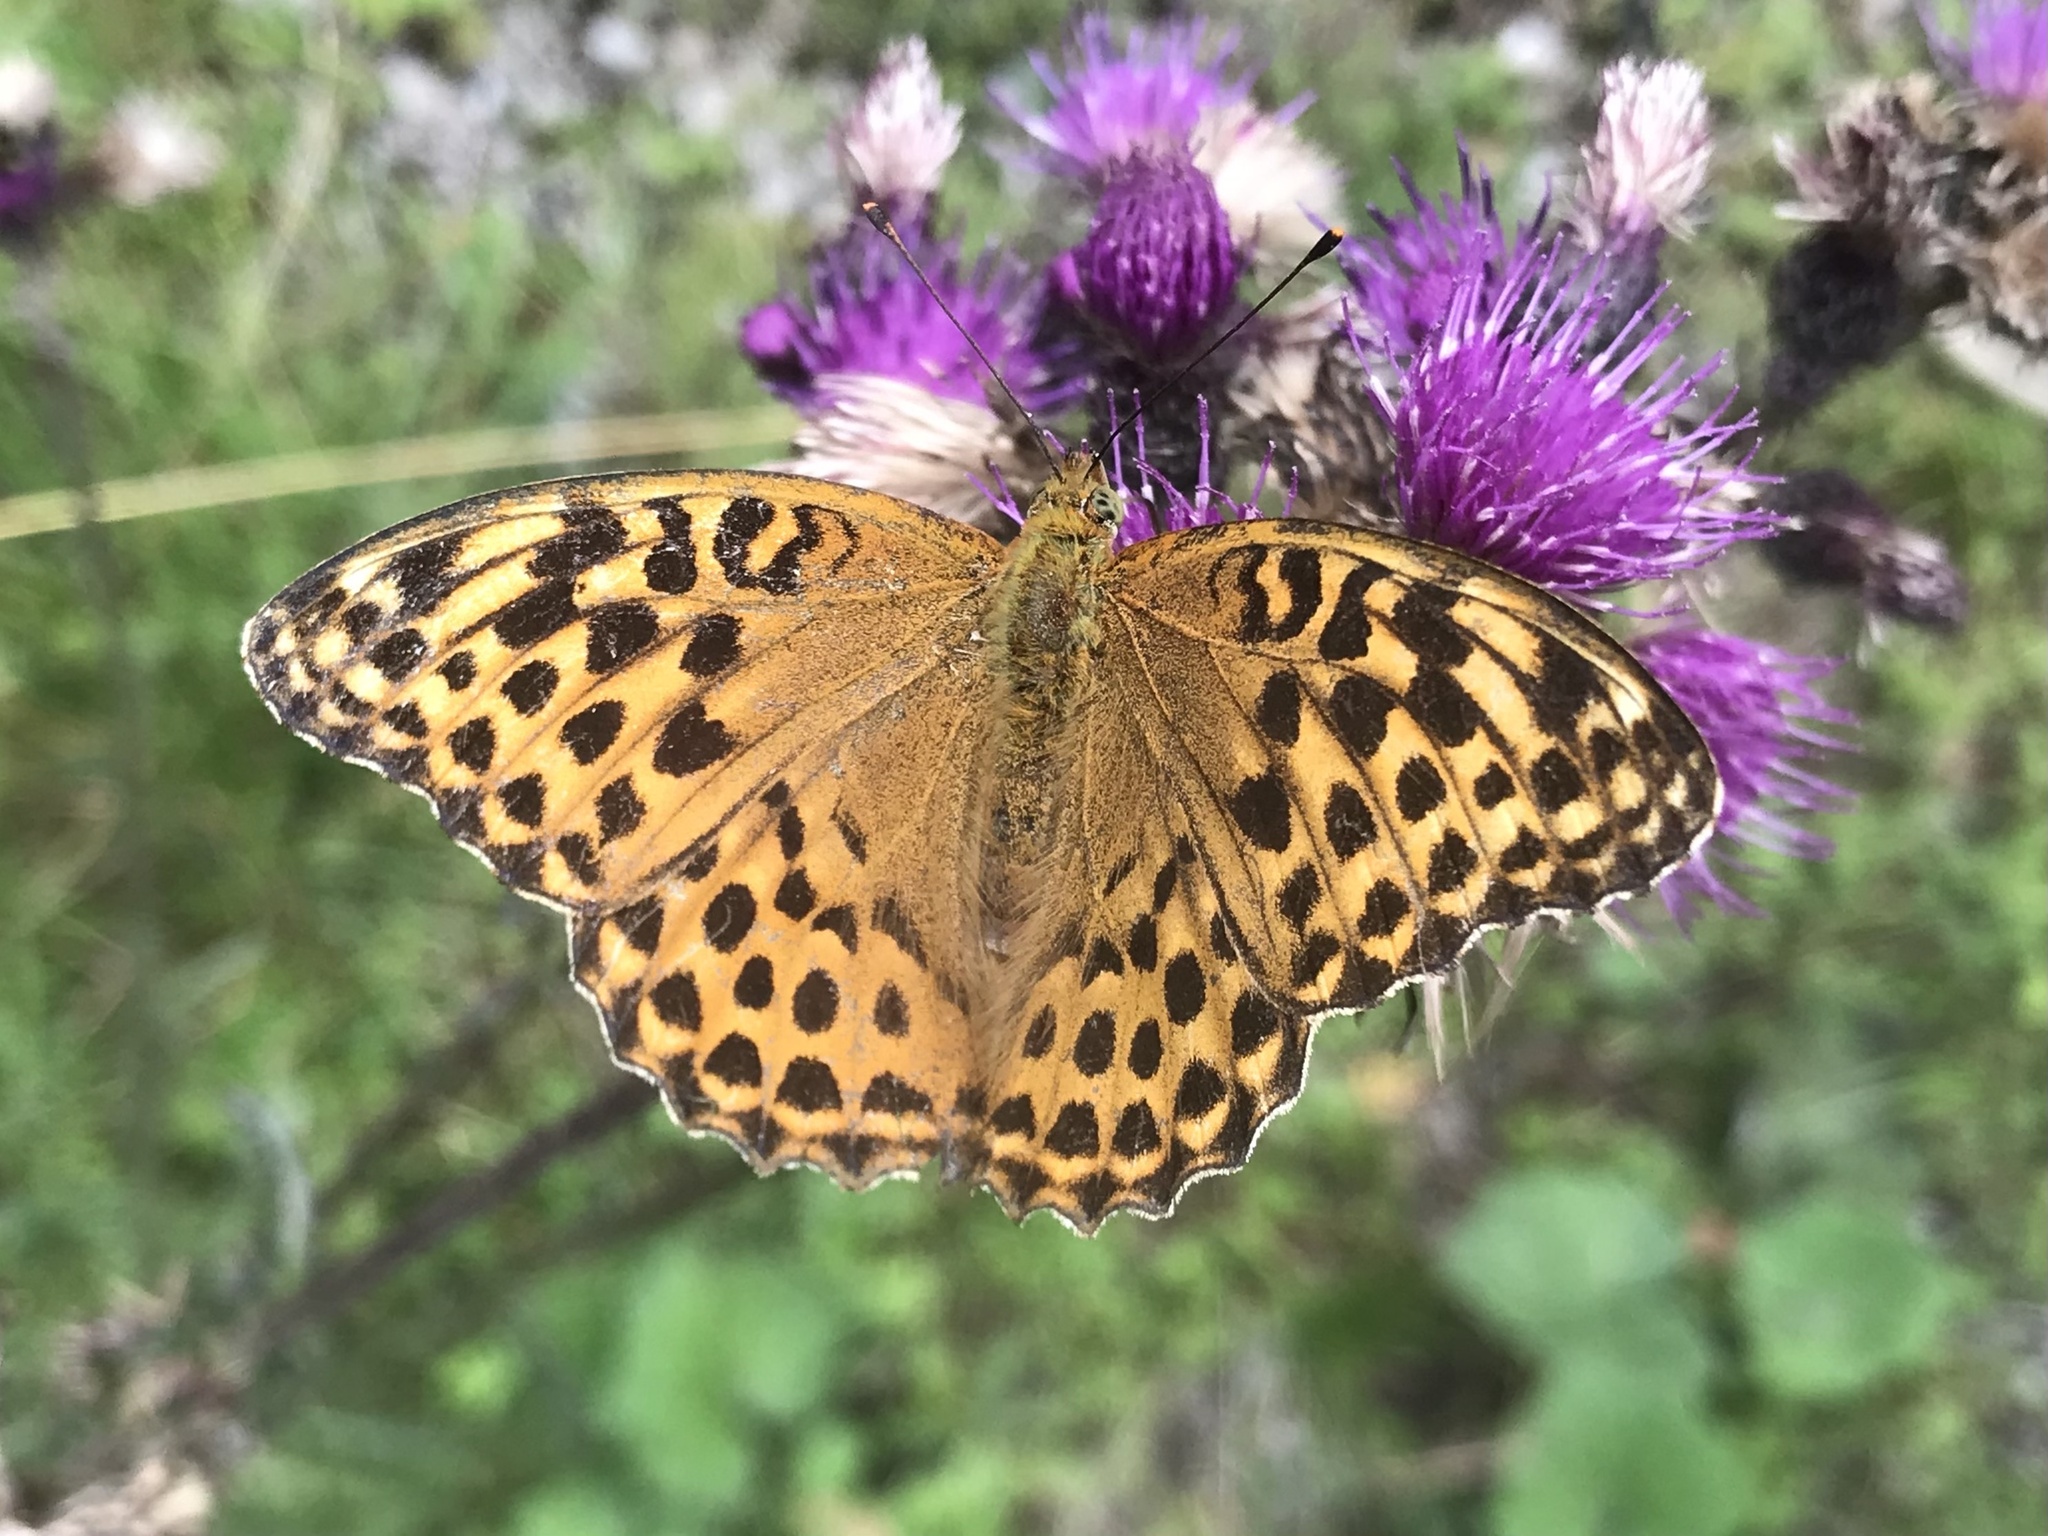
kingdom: Animalia
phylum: Arthropoda
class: Insecta
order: Lepidoptera
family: Nymphalidae
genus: Argynnis
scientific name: Argynnis paphia
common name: Silver-washed fritillary
